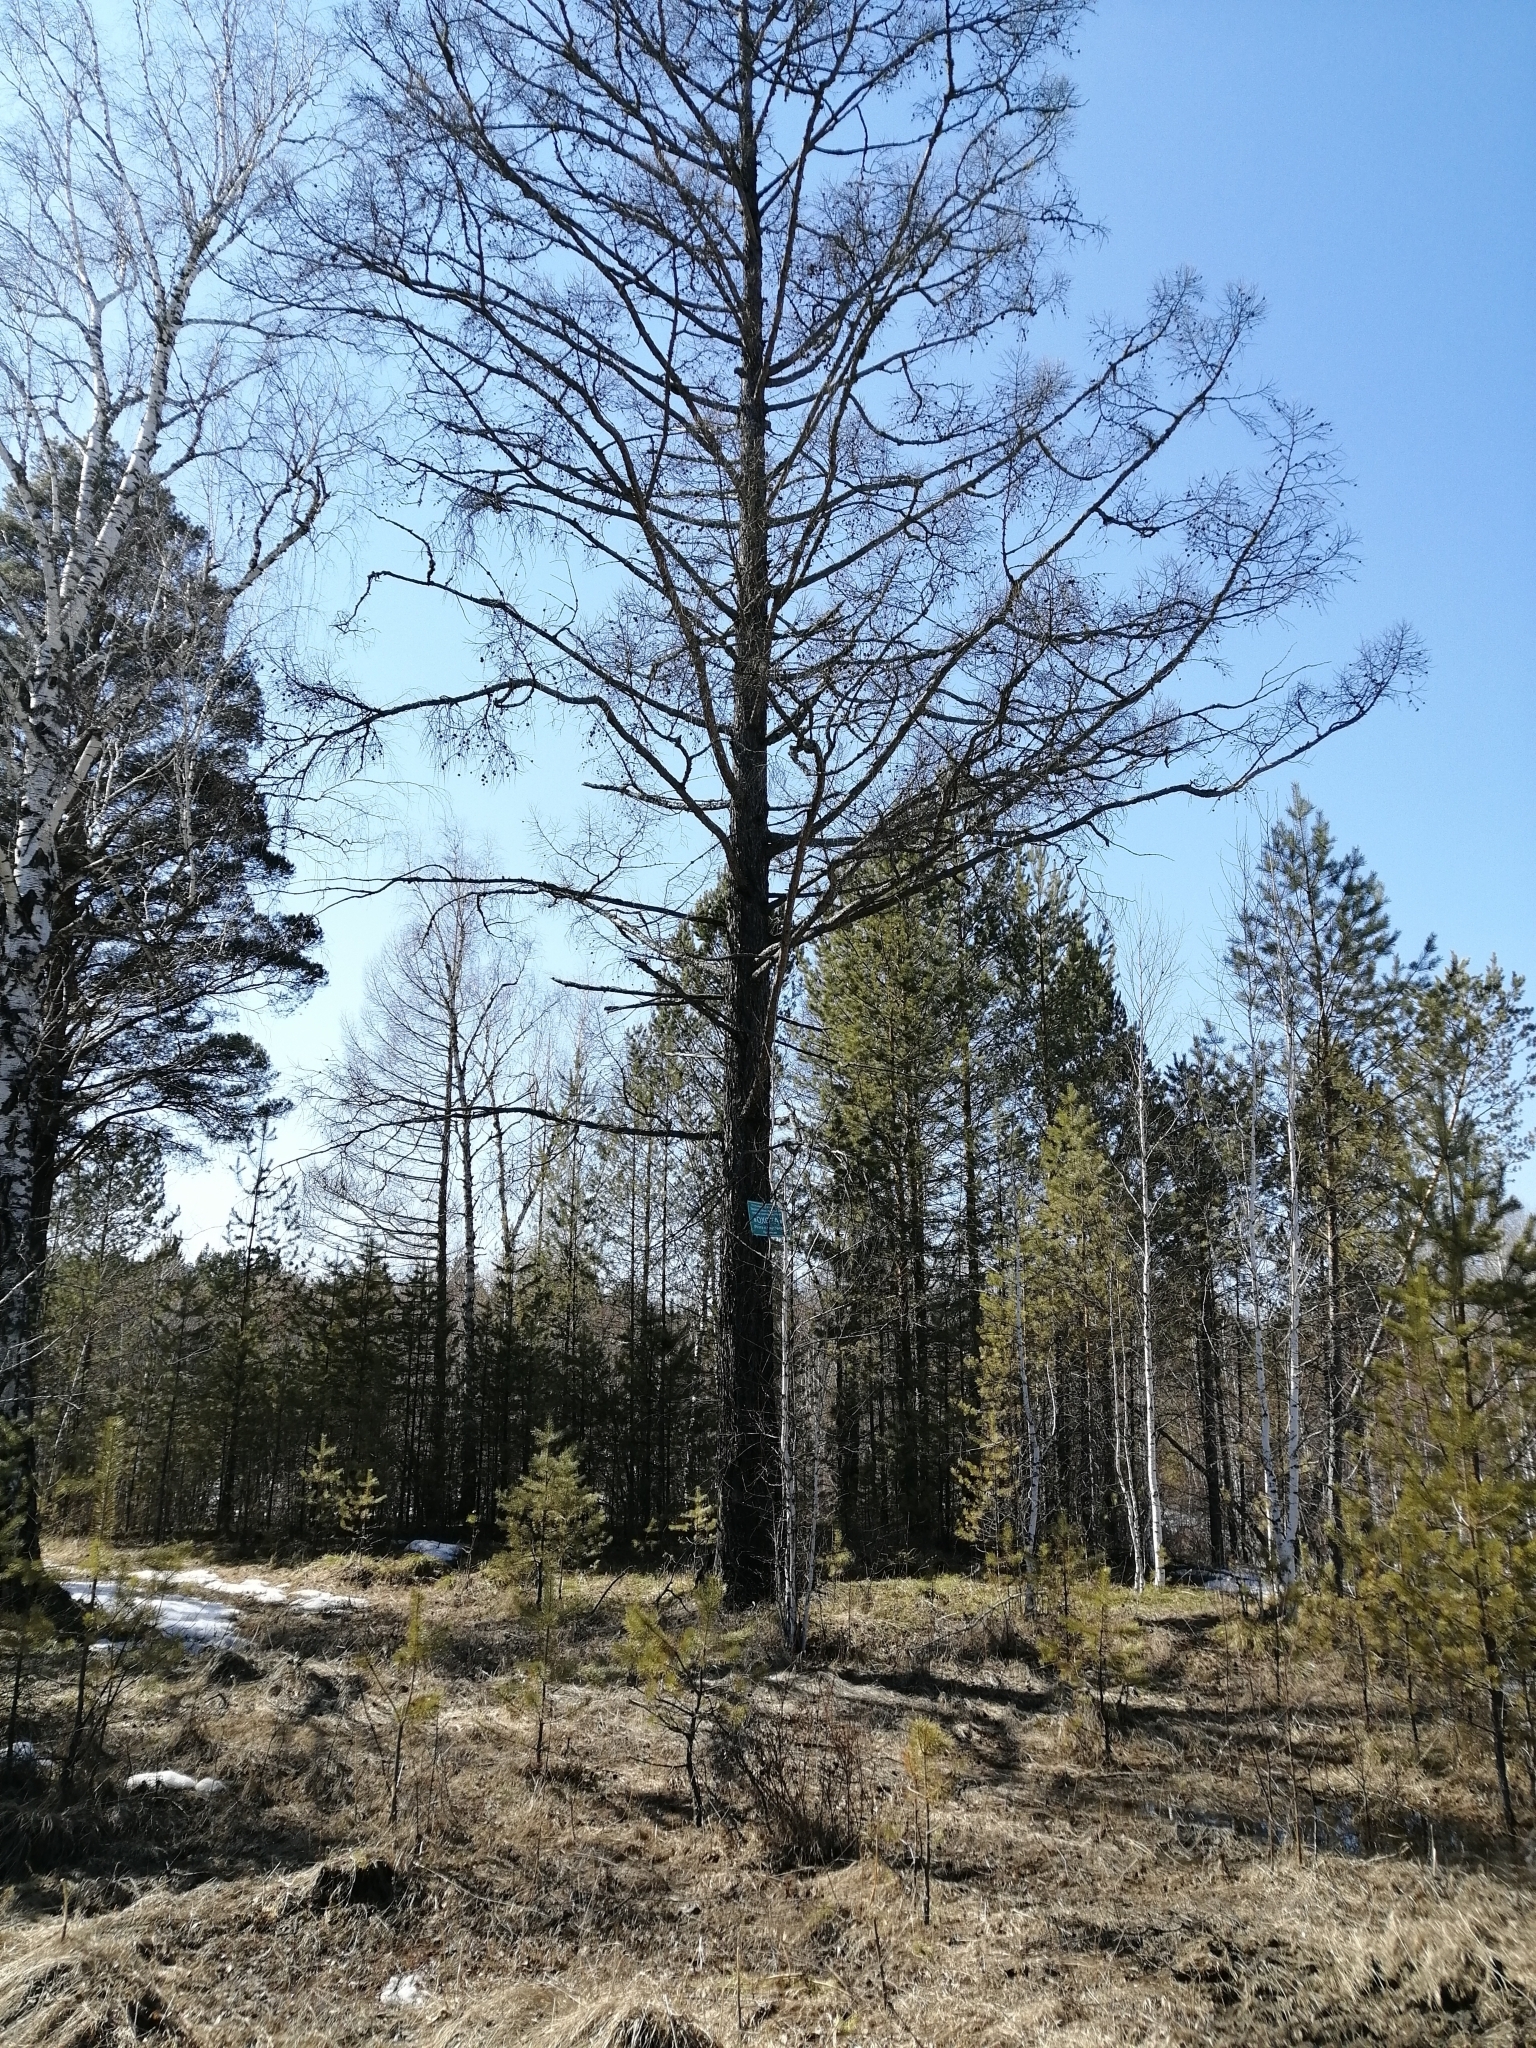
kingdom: Plantae
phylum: Tracheophyta
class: Pinopsida
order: Pinales
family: Pinaceae
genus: Larix
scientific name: Larix sibirica
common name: Siberian larch
